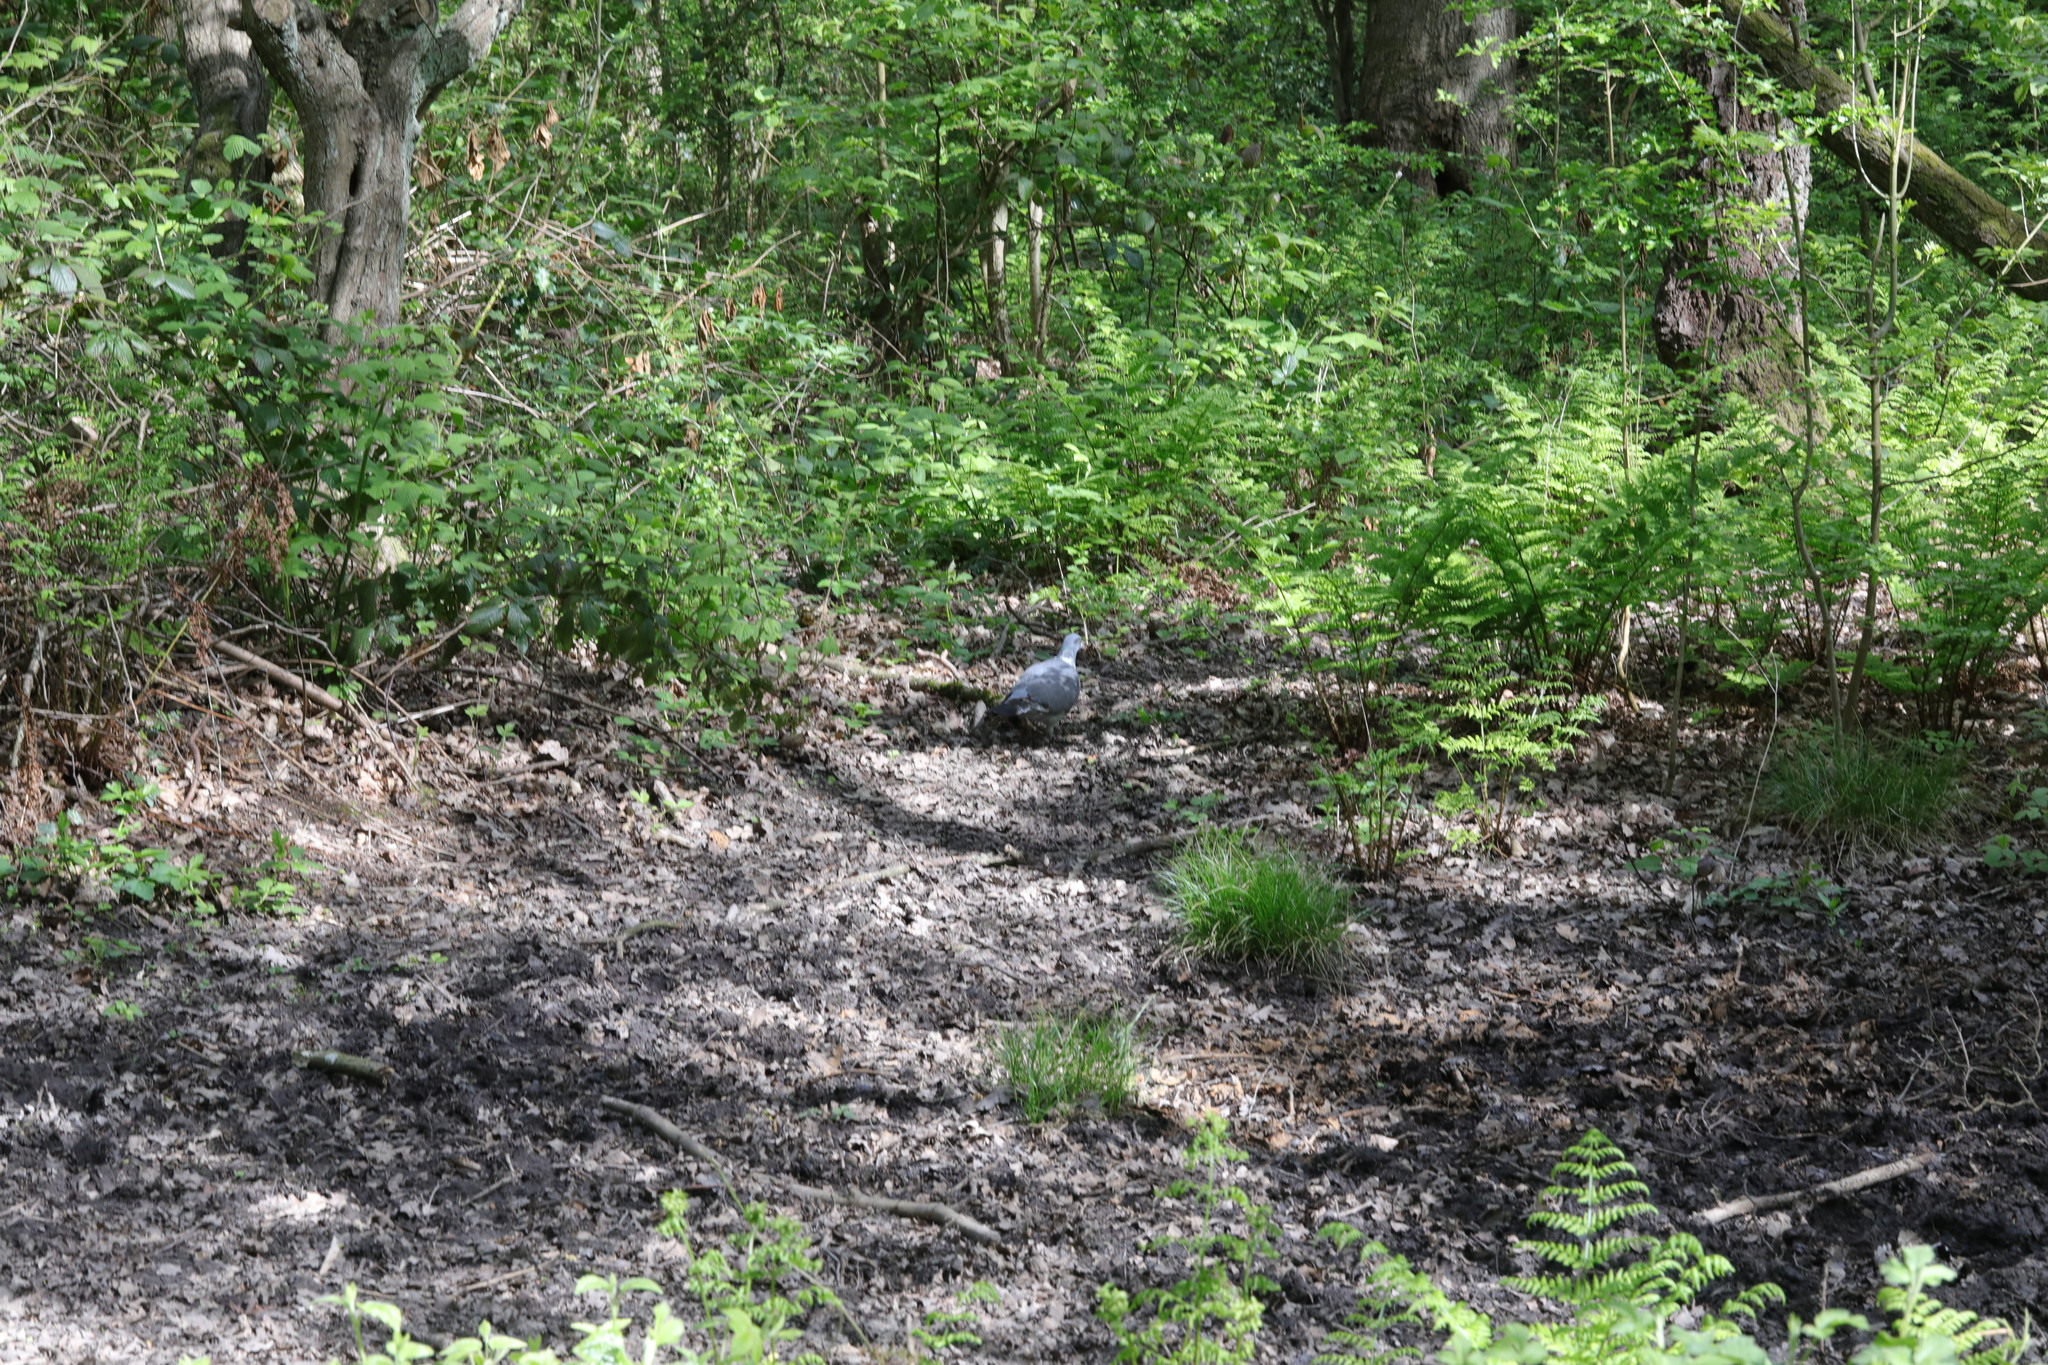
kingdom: Animalia
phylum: Chordata
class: Aves
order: Columbiformes
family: Columbidae
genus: Columba
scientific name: Columba palumbus
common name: Common wood pigeon
